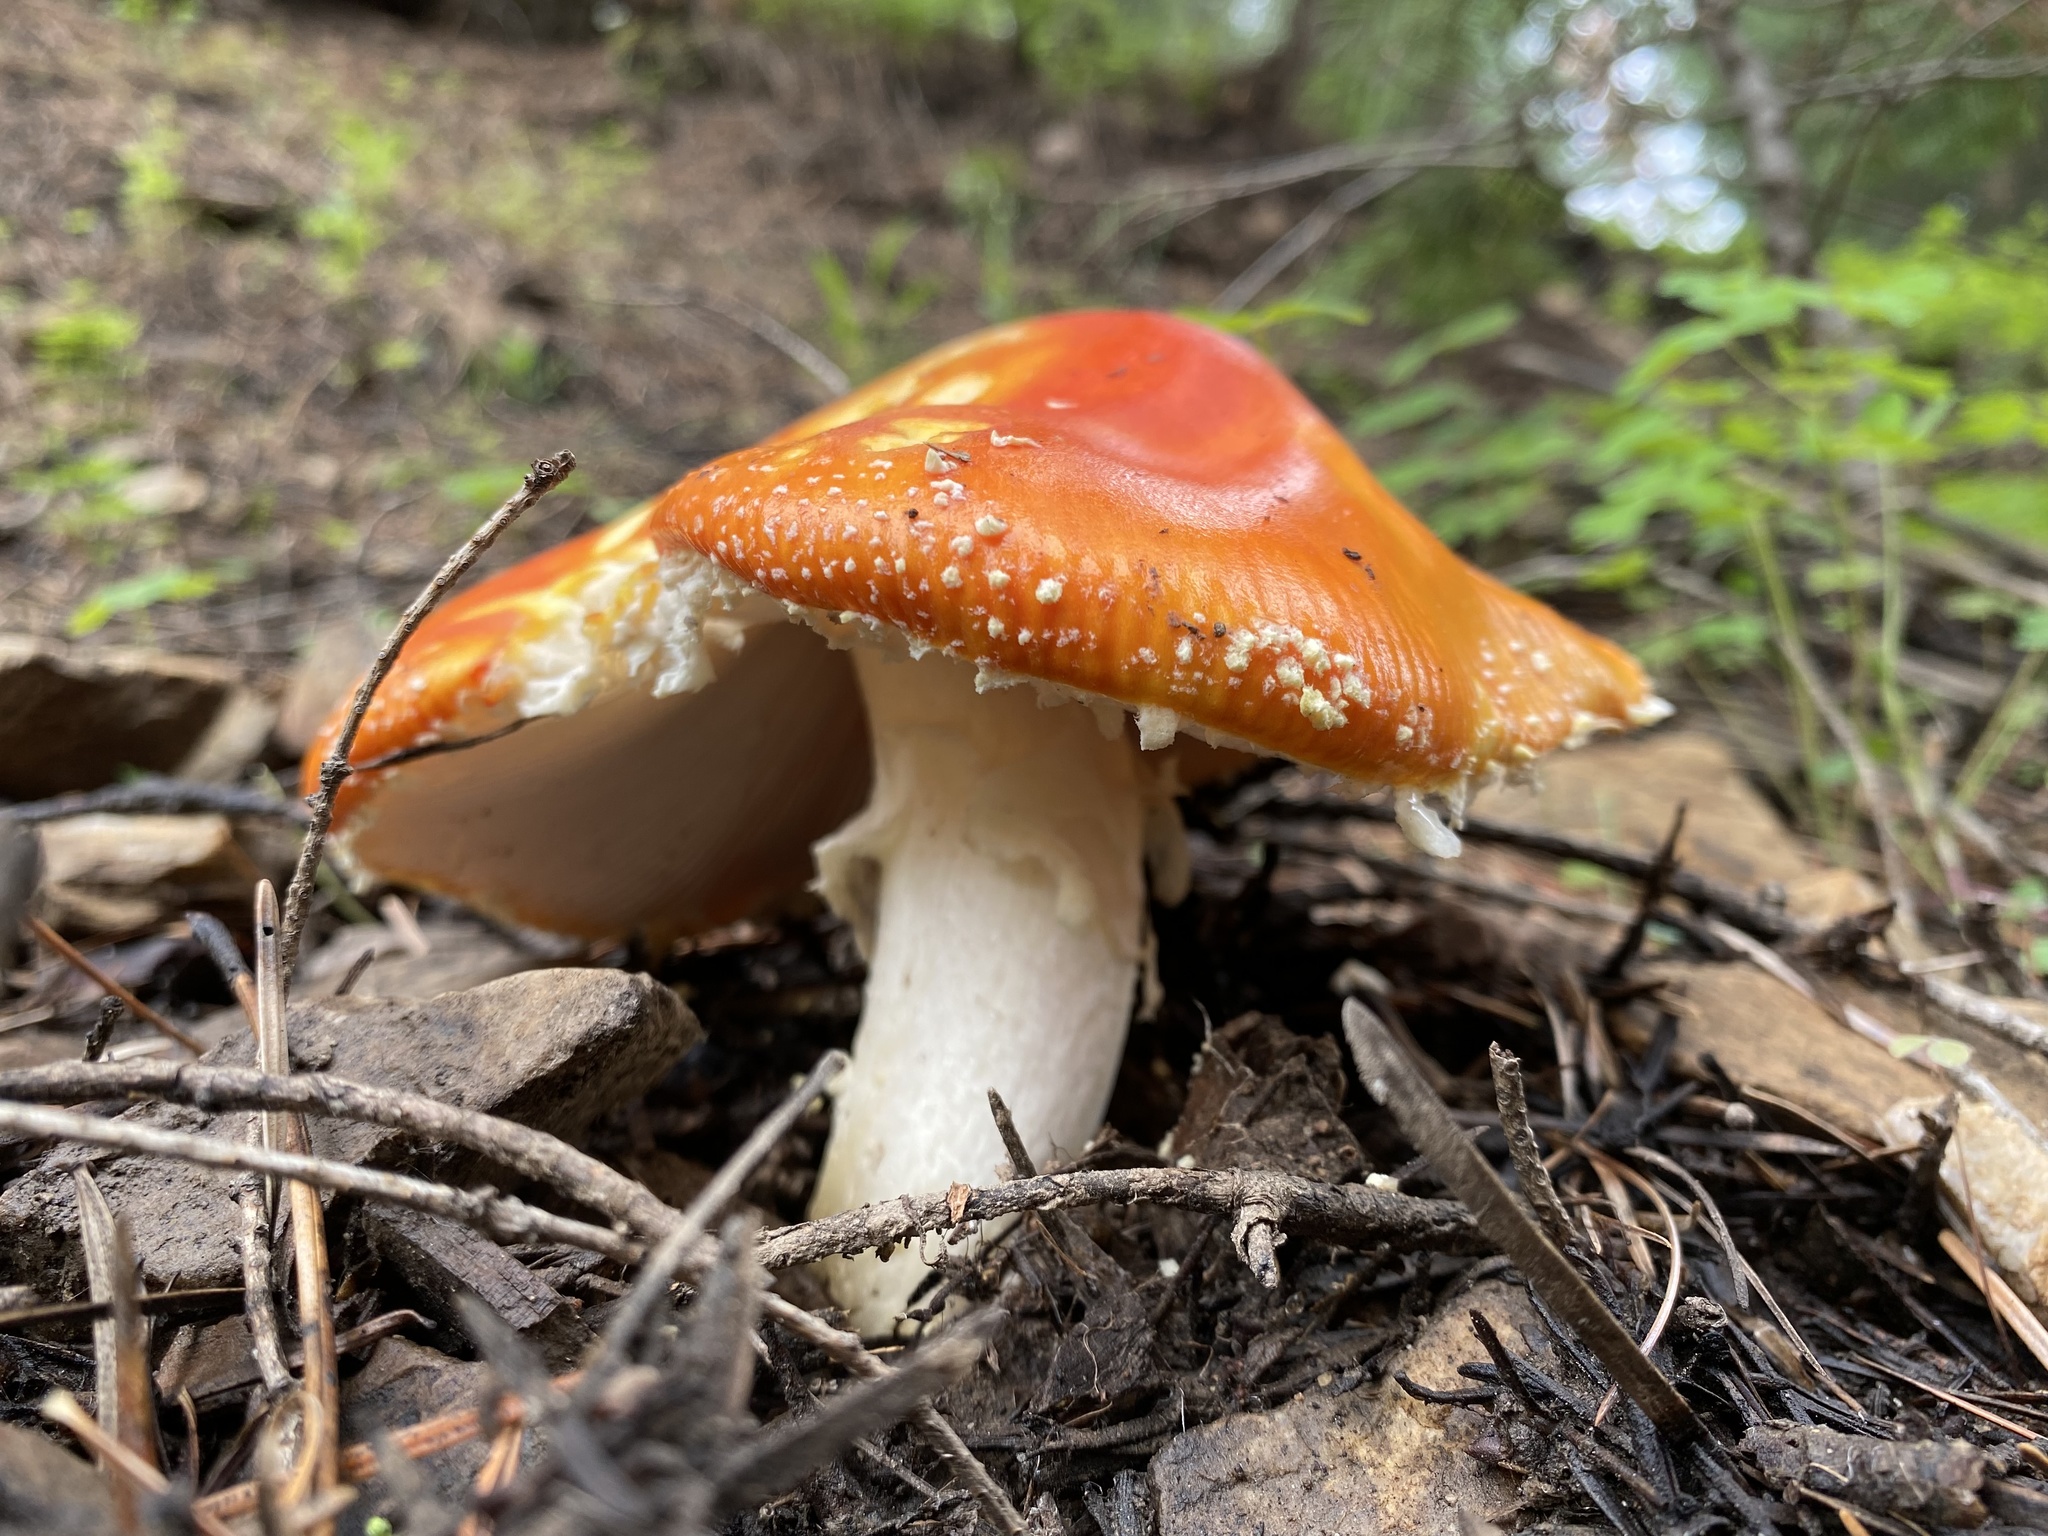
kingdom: Fungi
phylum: Basidiomycota
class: Agaricomycetes
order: Agaricales
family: Amanitaceae
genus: Amanita
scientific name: Amanita muscaria
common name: Fly agaric
